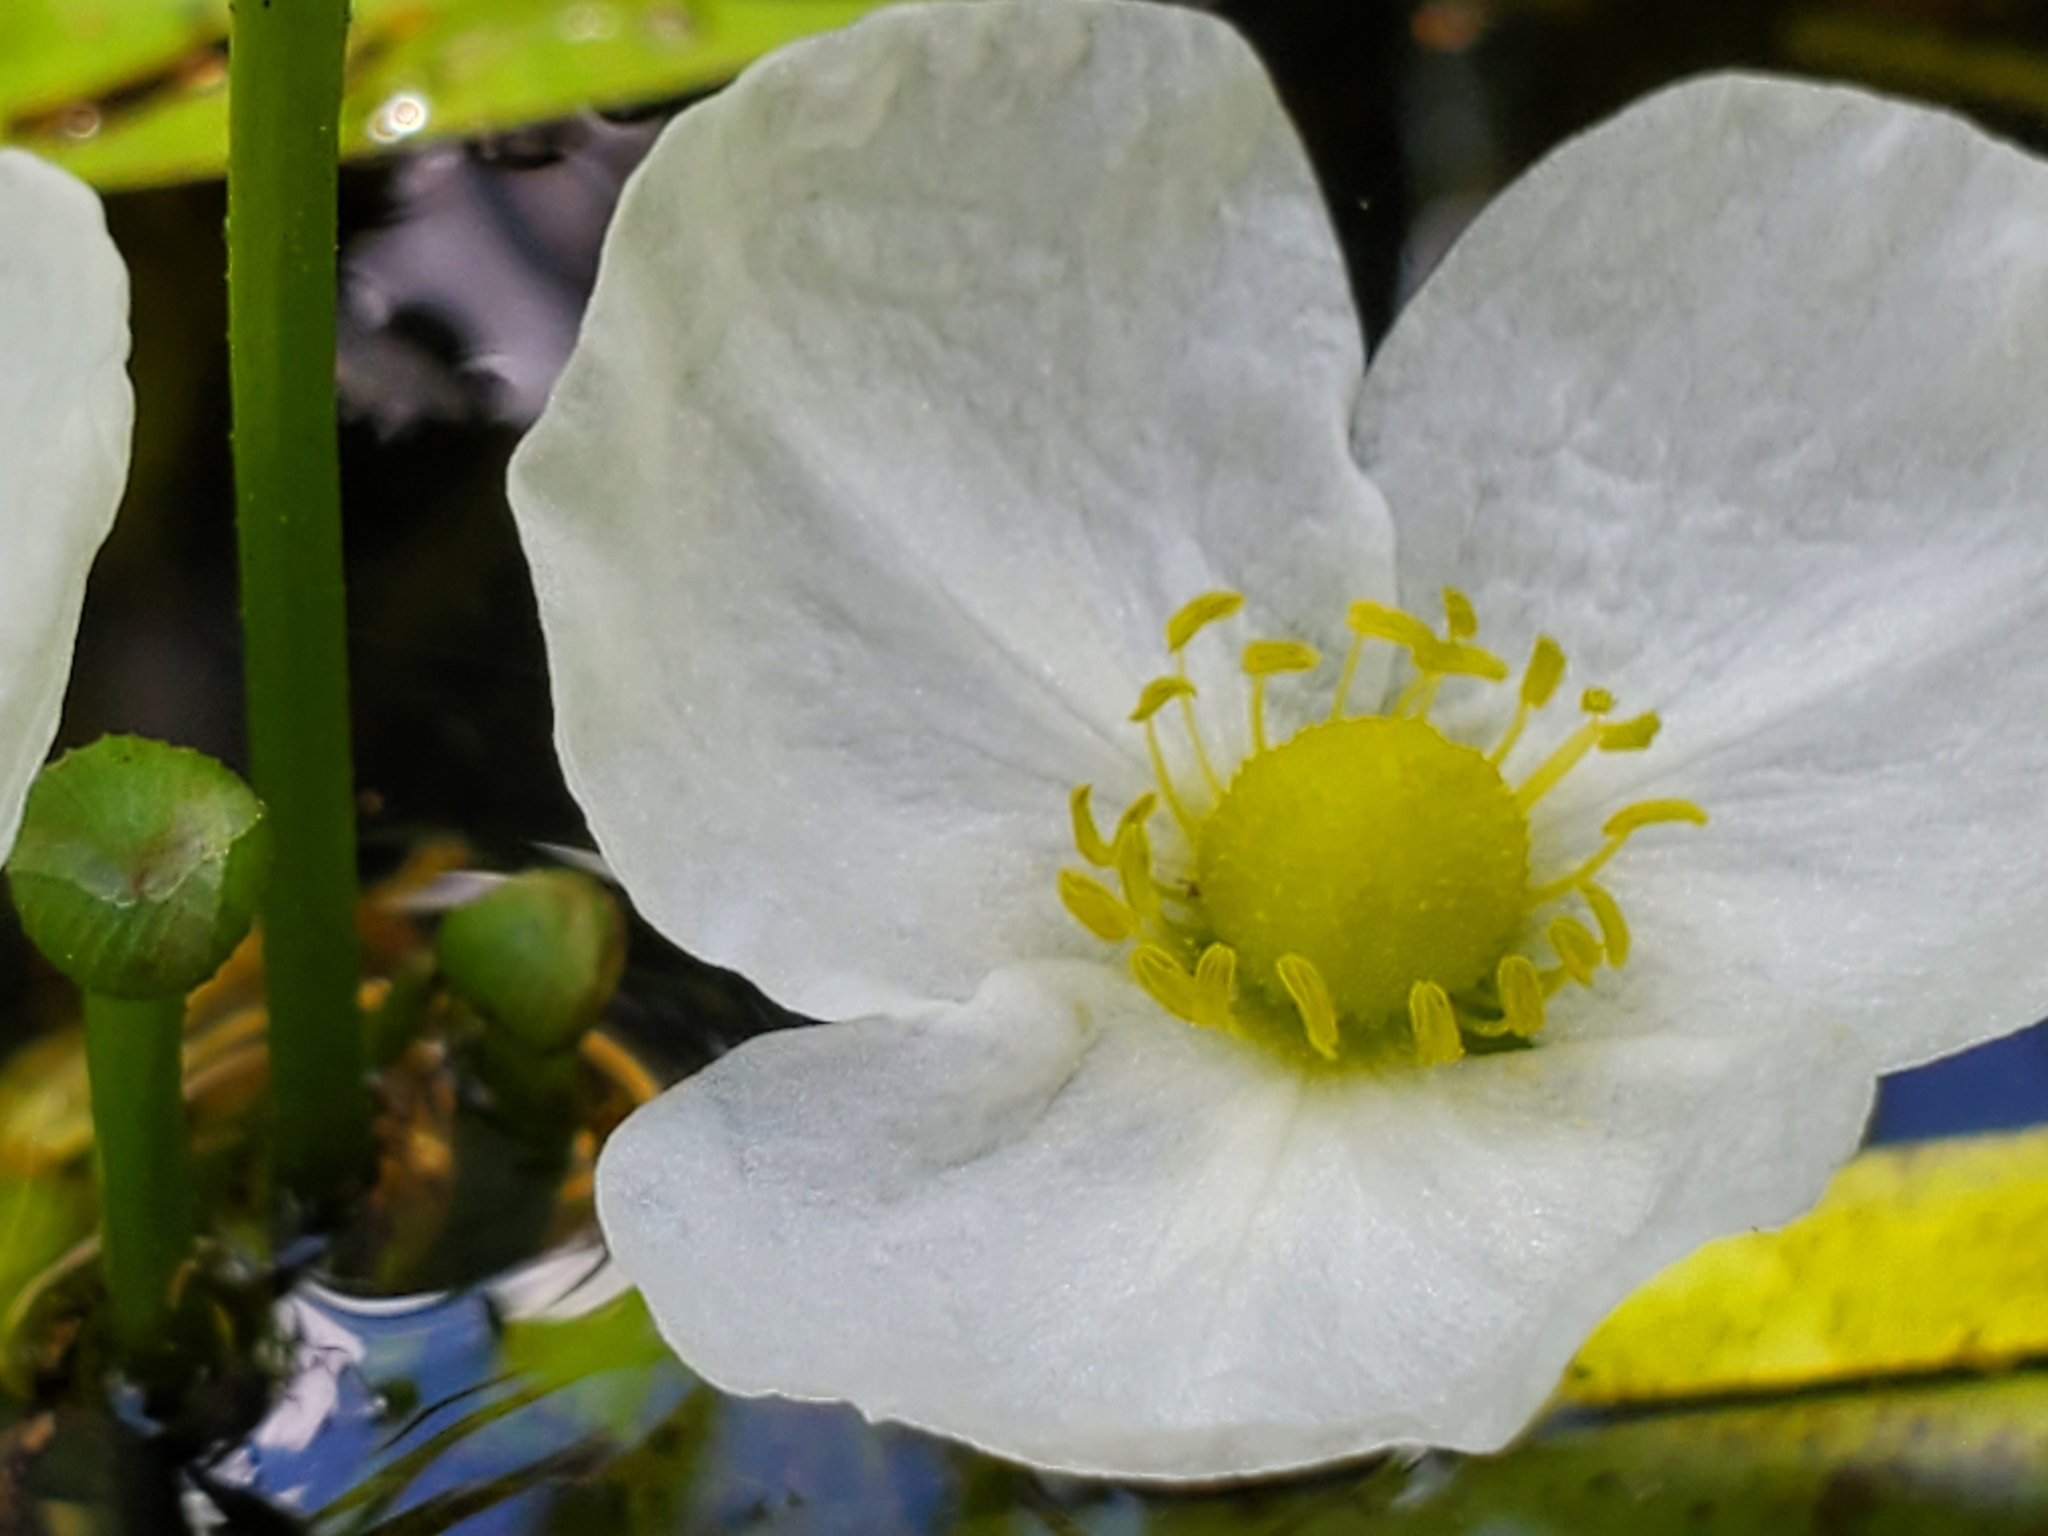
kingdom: Plantae
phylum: Tracheophyta
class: Liliopsida
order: Alismatales
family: Alismataceae
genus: Aquarius
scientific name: Aquarius cordifolius
